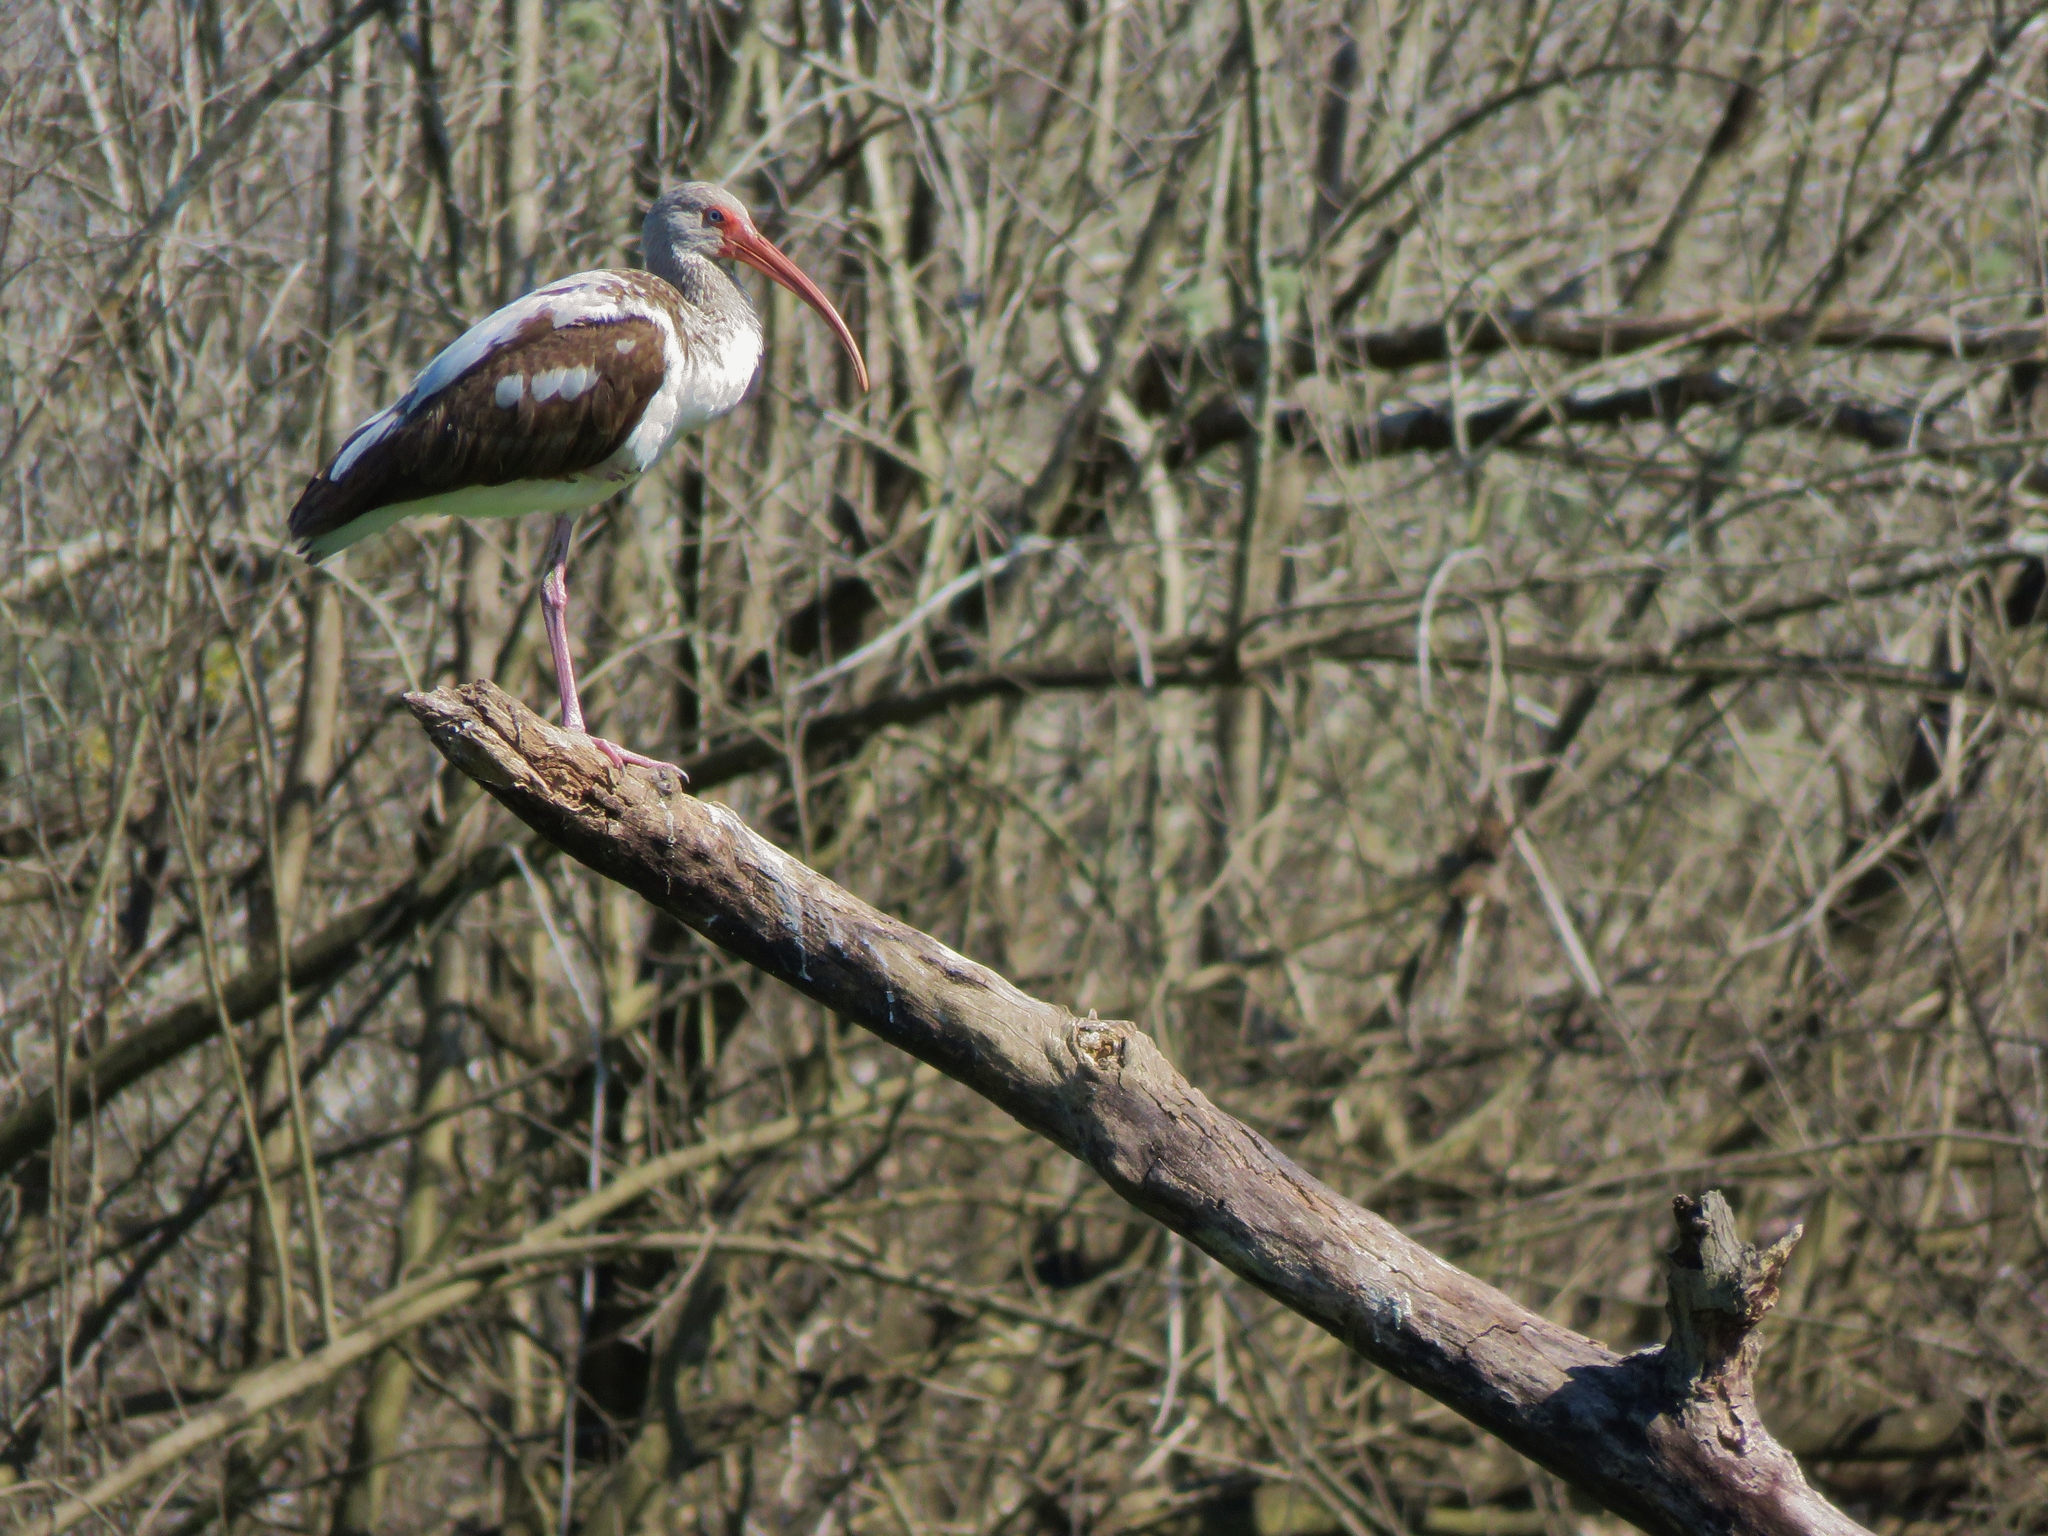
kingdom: Animalia
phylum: Chordata
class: Aves
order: Pelecaniformes
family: Threskiornithidae
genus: Eudocimus
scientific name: Eudocimus albus
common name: White ibis
